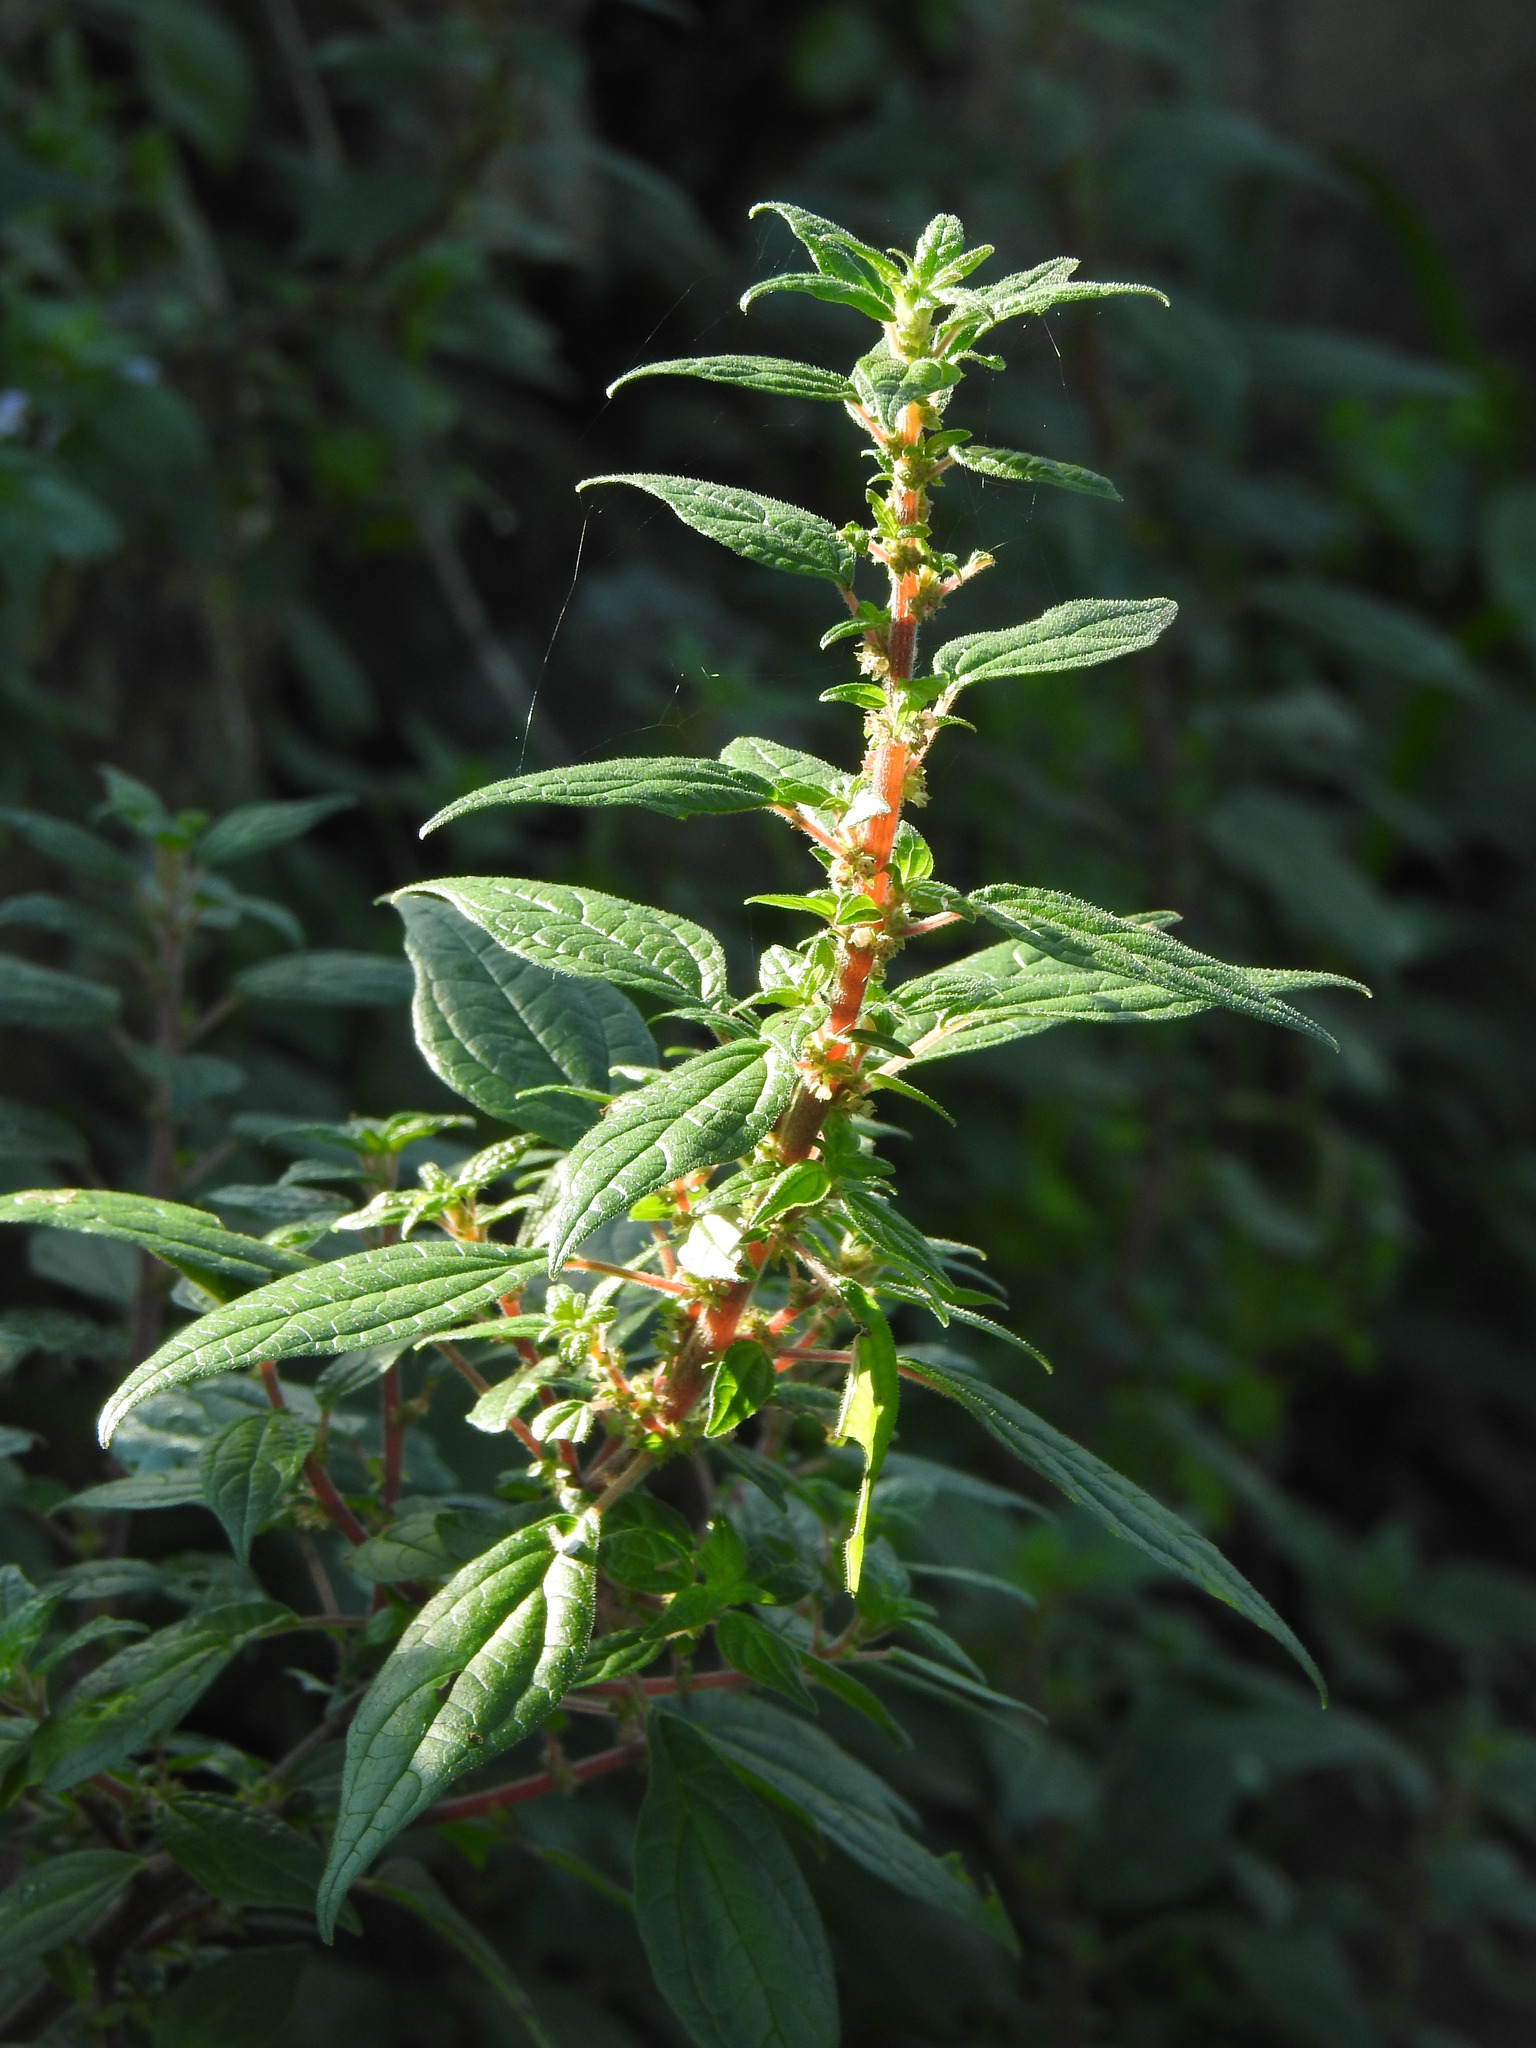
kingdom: Plantae
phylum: Tracheophyta
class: Magnoliopsida
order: Rosales
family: Urticaceae
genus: Parietaria
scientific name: Parietaria judaica
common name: Pellitory-of-the-wall
